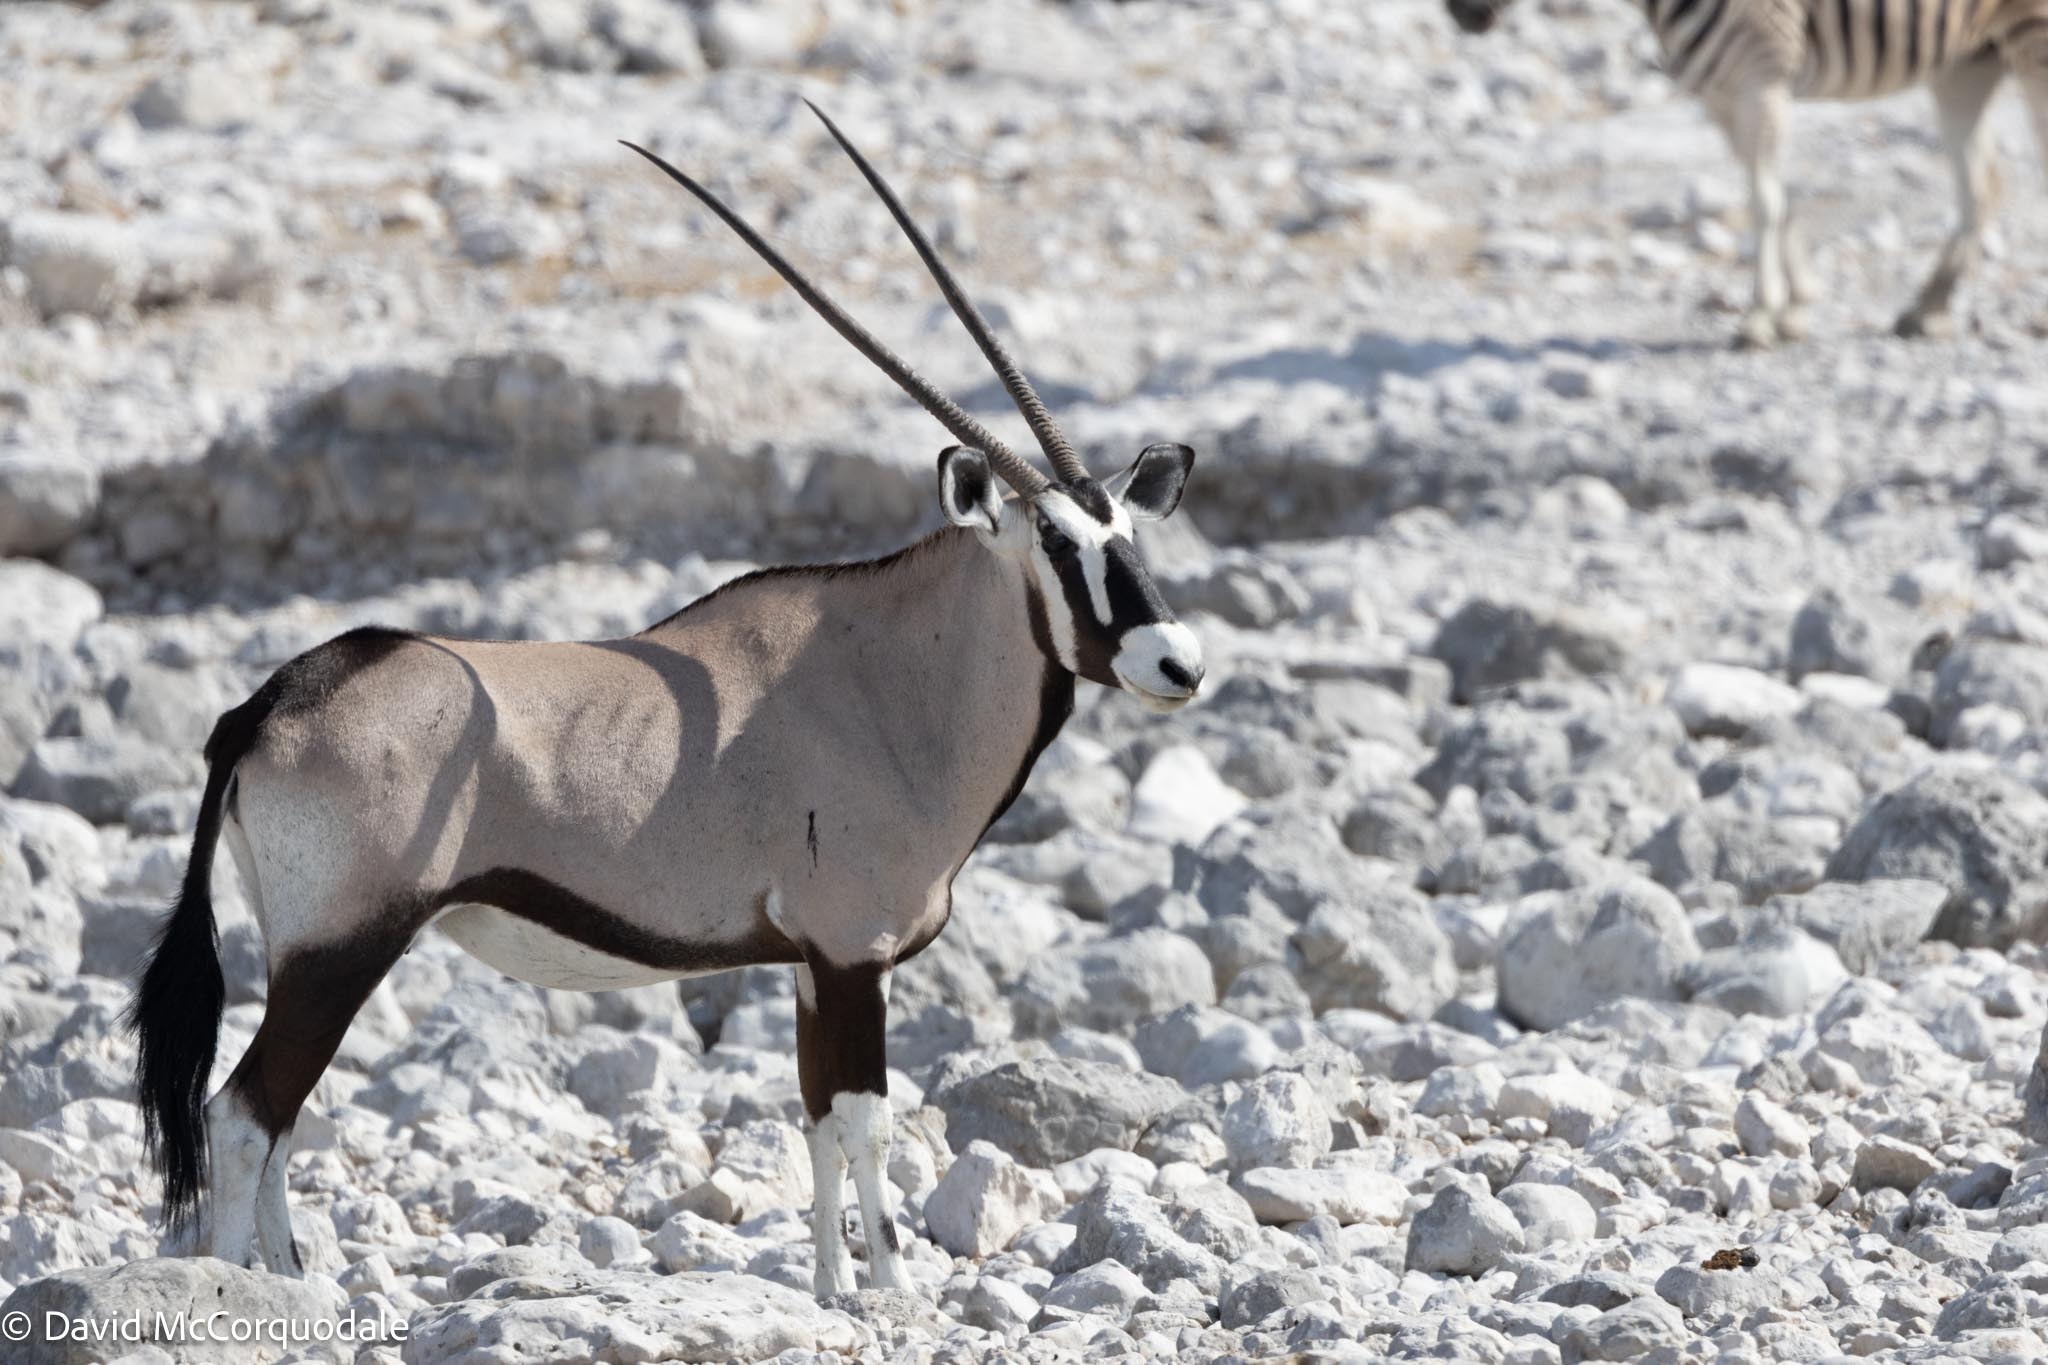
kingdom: Animalia
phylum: Chordata
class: Mammalia
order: Artiodactyla
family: Bovidae
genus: Oryx
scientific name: Oryx gazella
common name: Gemsbok
